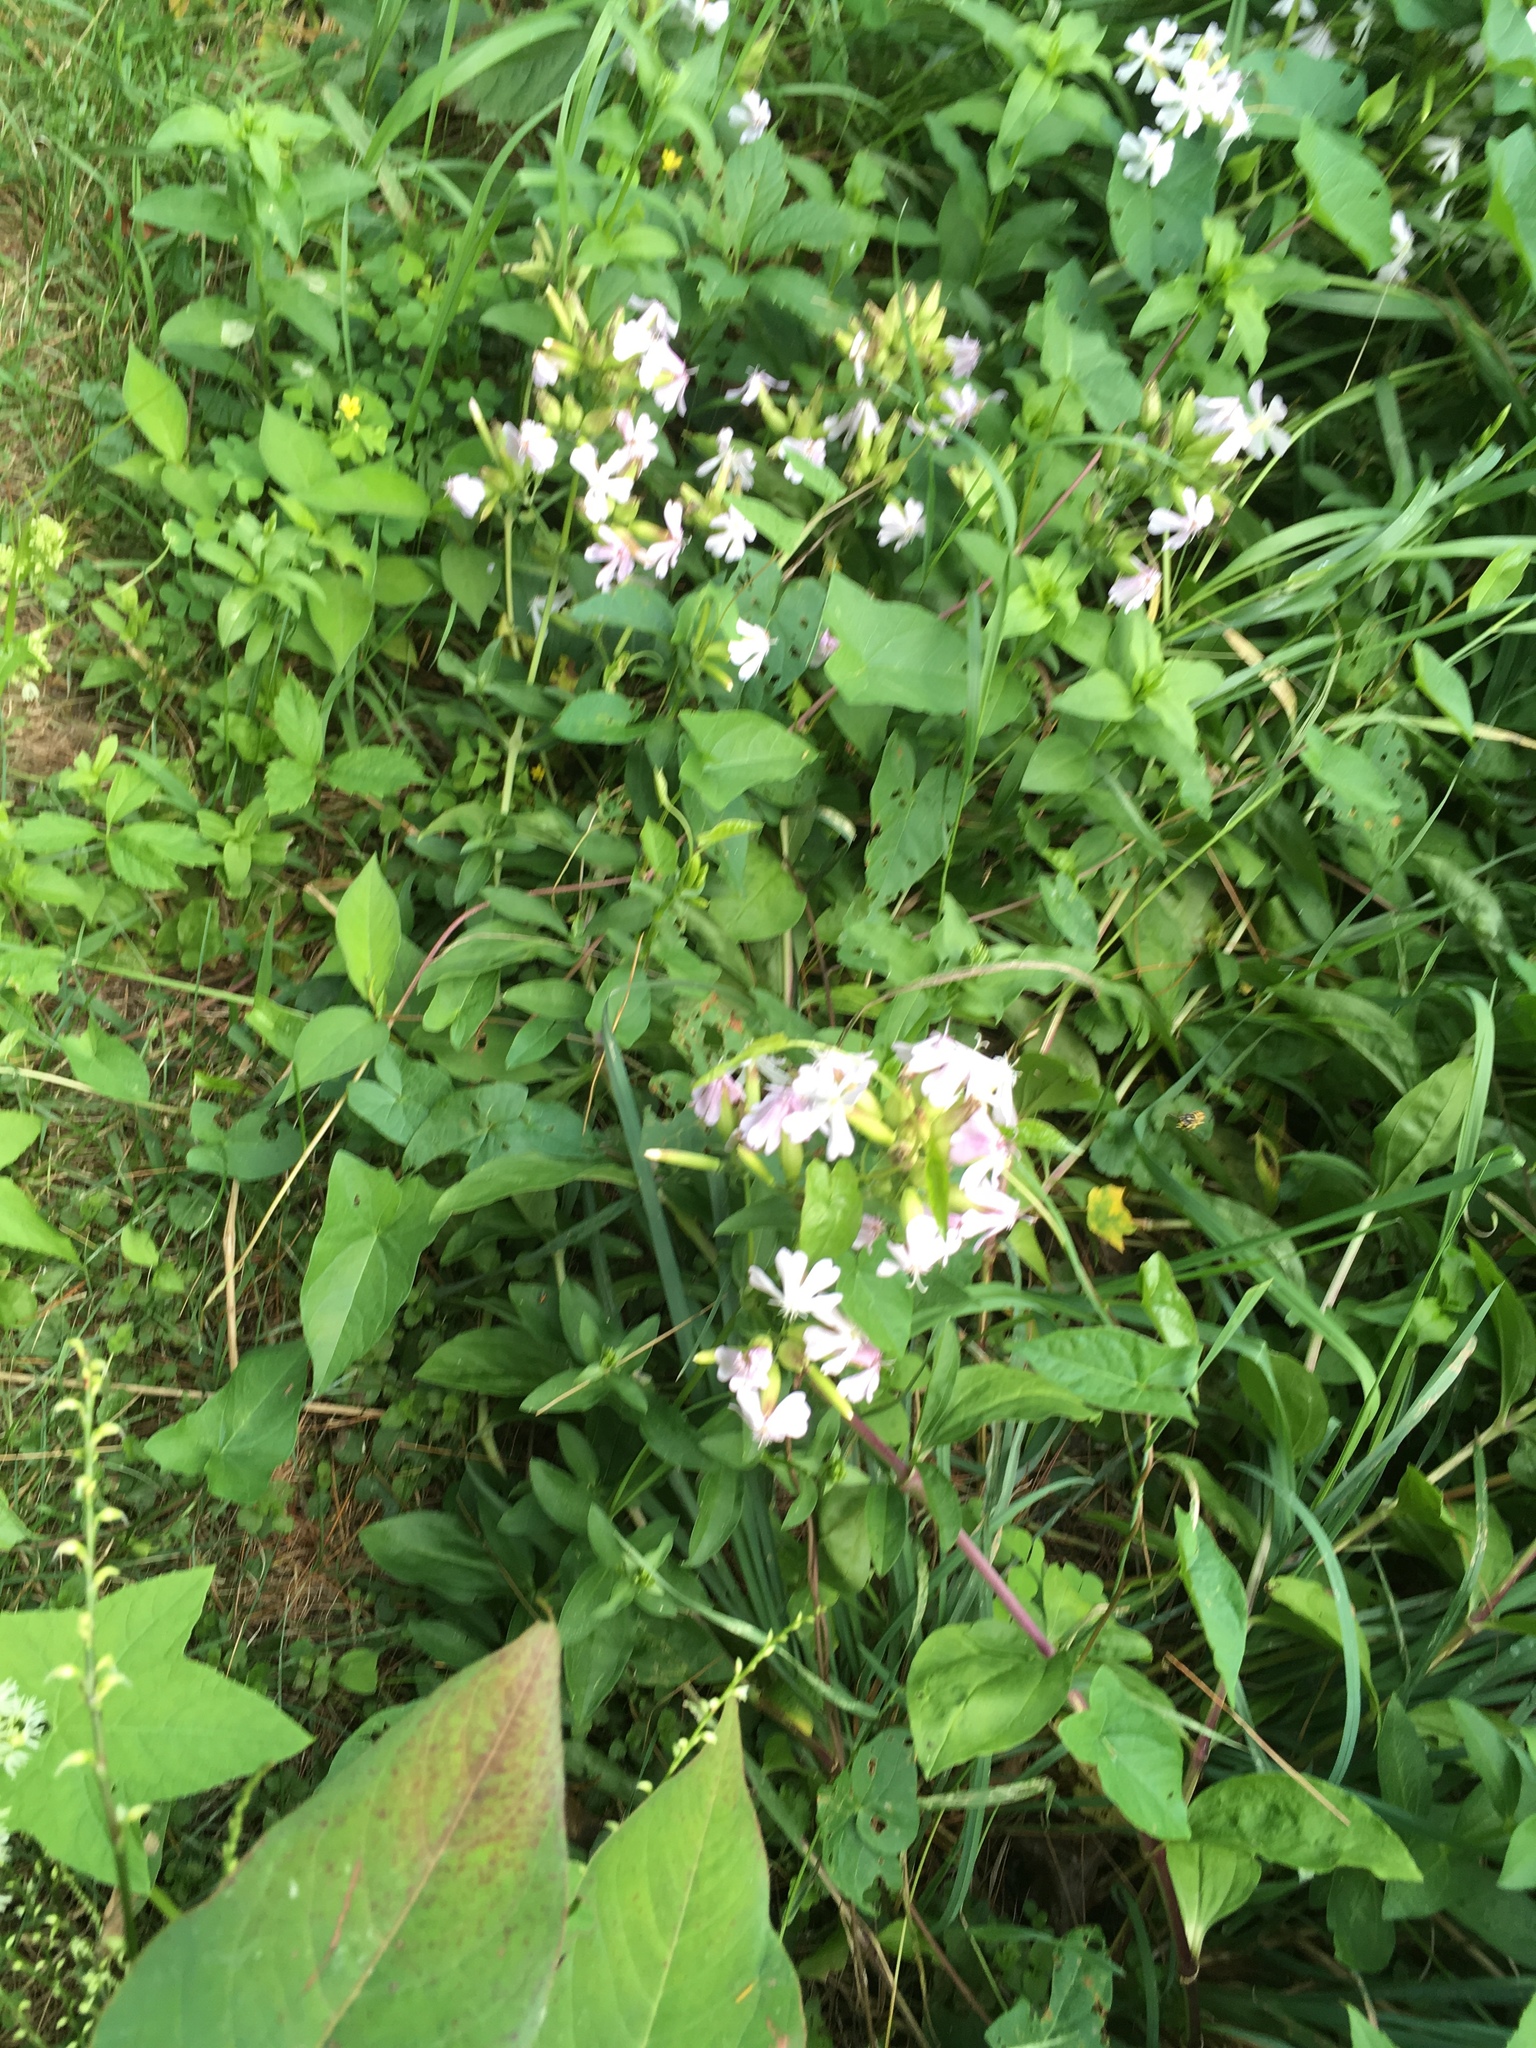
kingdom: Plantae
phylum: Tracheophyta
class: Magnoliopsida
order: Caryophyllales
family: Caryophyllaceae
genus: Saponaria
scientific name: Saponaria officinalis
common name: Soapwort
